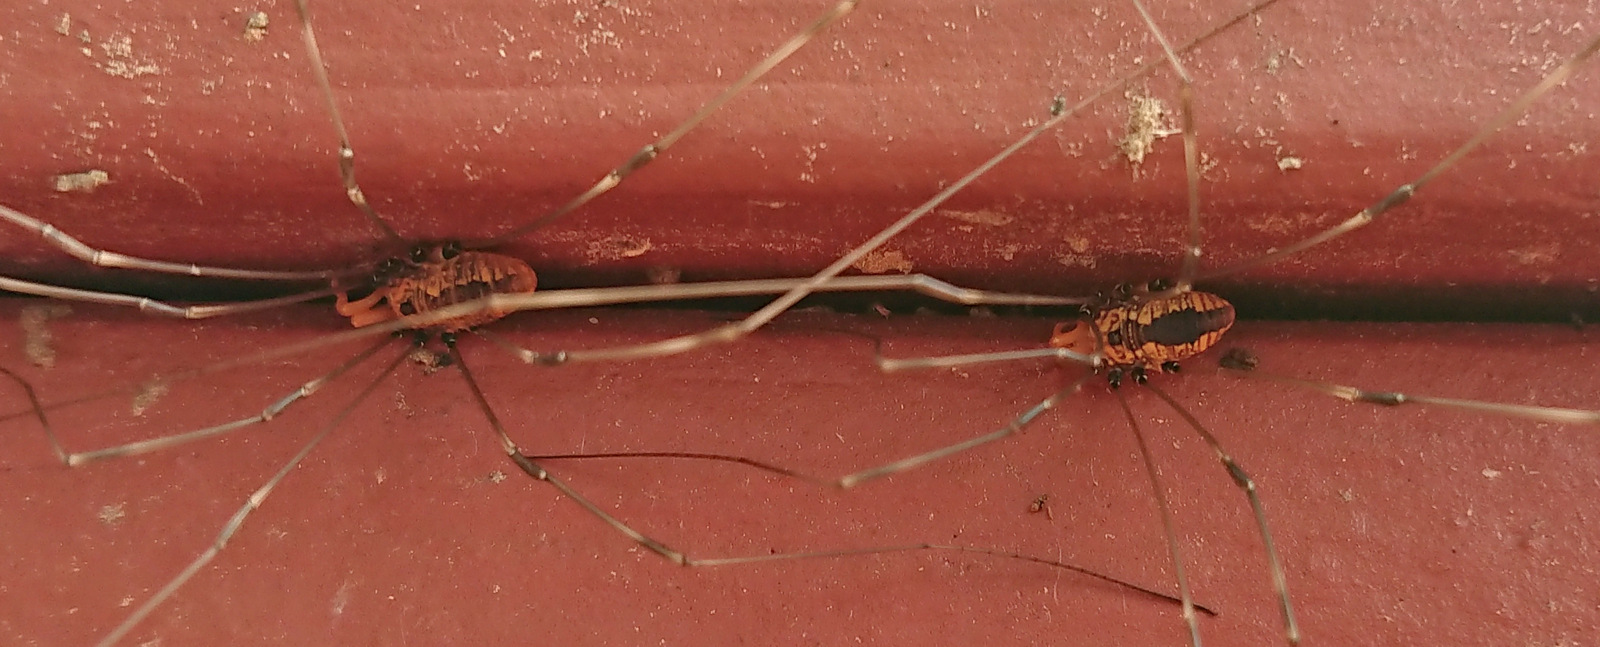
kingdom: Animalia
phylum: Arthropoda
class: Arachnida
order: Opiliones
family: Sclerosomatidae
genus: Leiobunum
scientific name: Leiobunum vittatum
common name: Eastern harvestman
